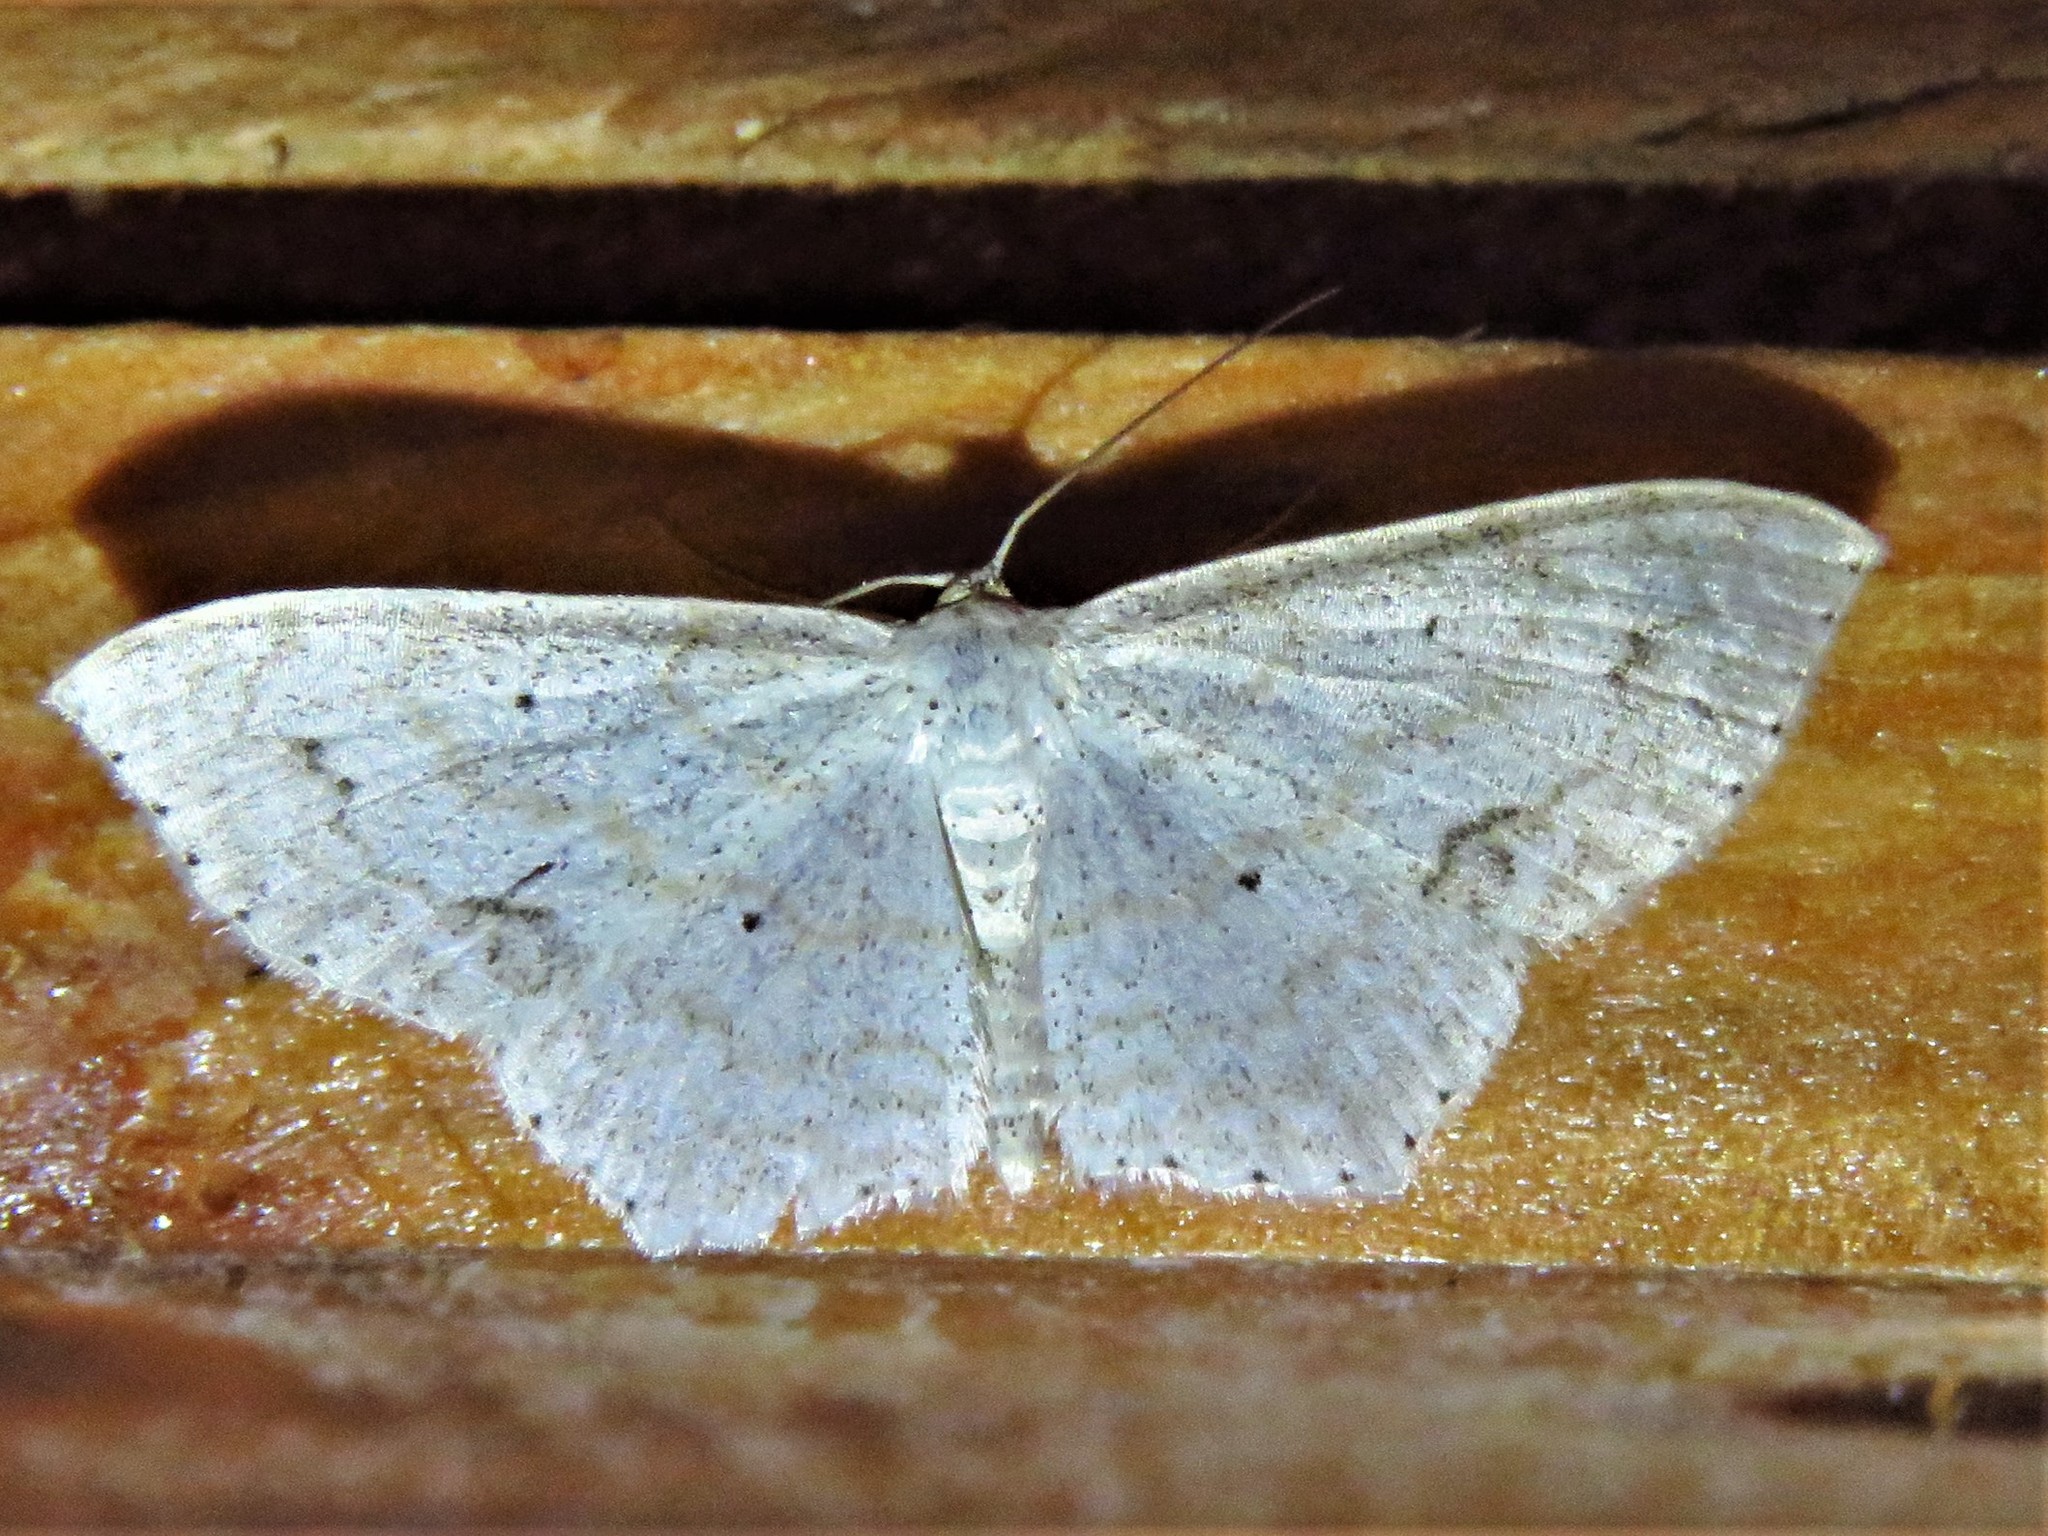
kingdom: Animalia
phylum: Arthropoda
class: Insecta
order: Lepidoptera
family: Geometridae
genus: Scopula
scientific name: Scopula umbilicata
